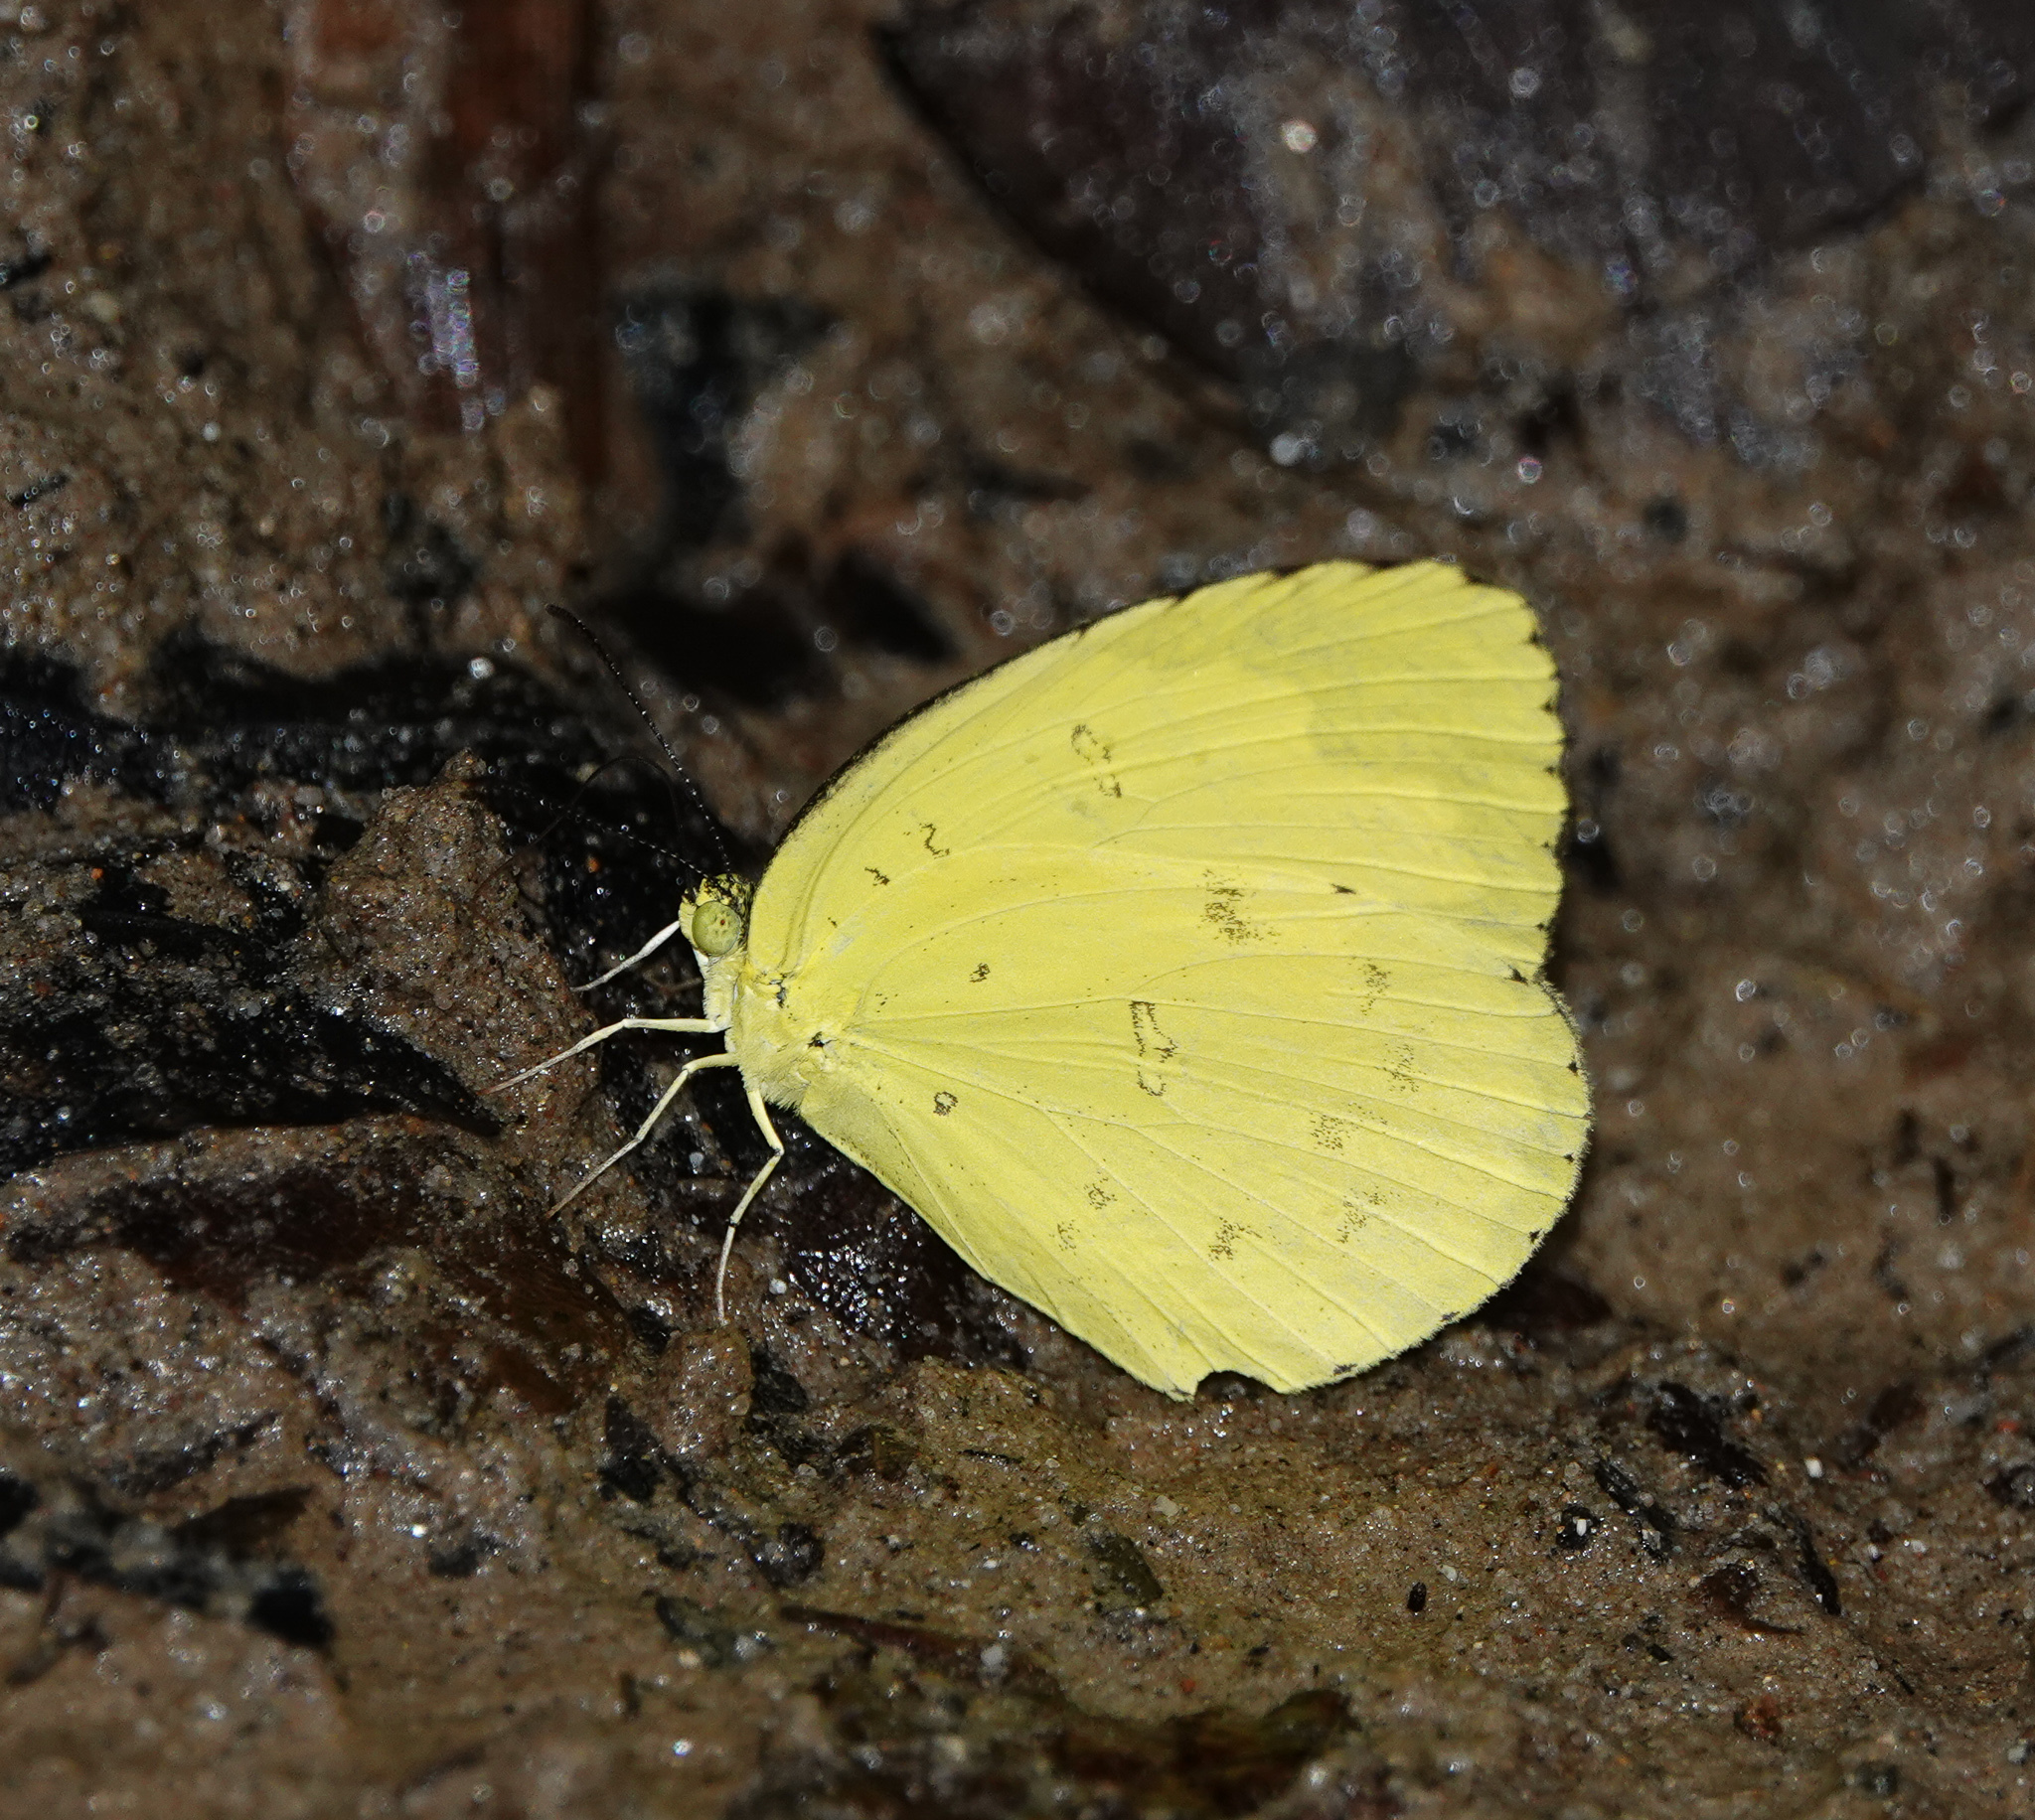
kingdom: Animalia
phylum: Arthropoda
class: Insecta
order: Lepidoptera
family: Pieridae
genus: Eurema
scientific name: Eurema blanda
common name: Three-spot grass yellow
